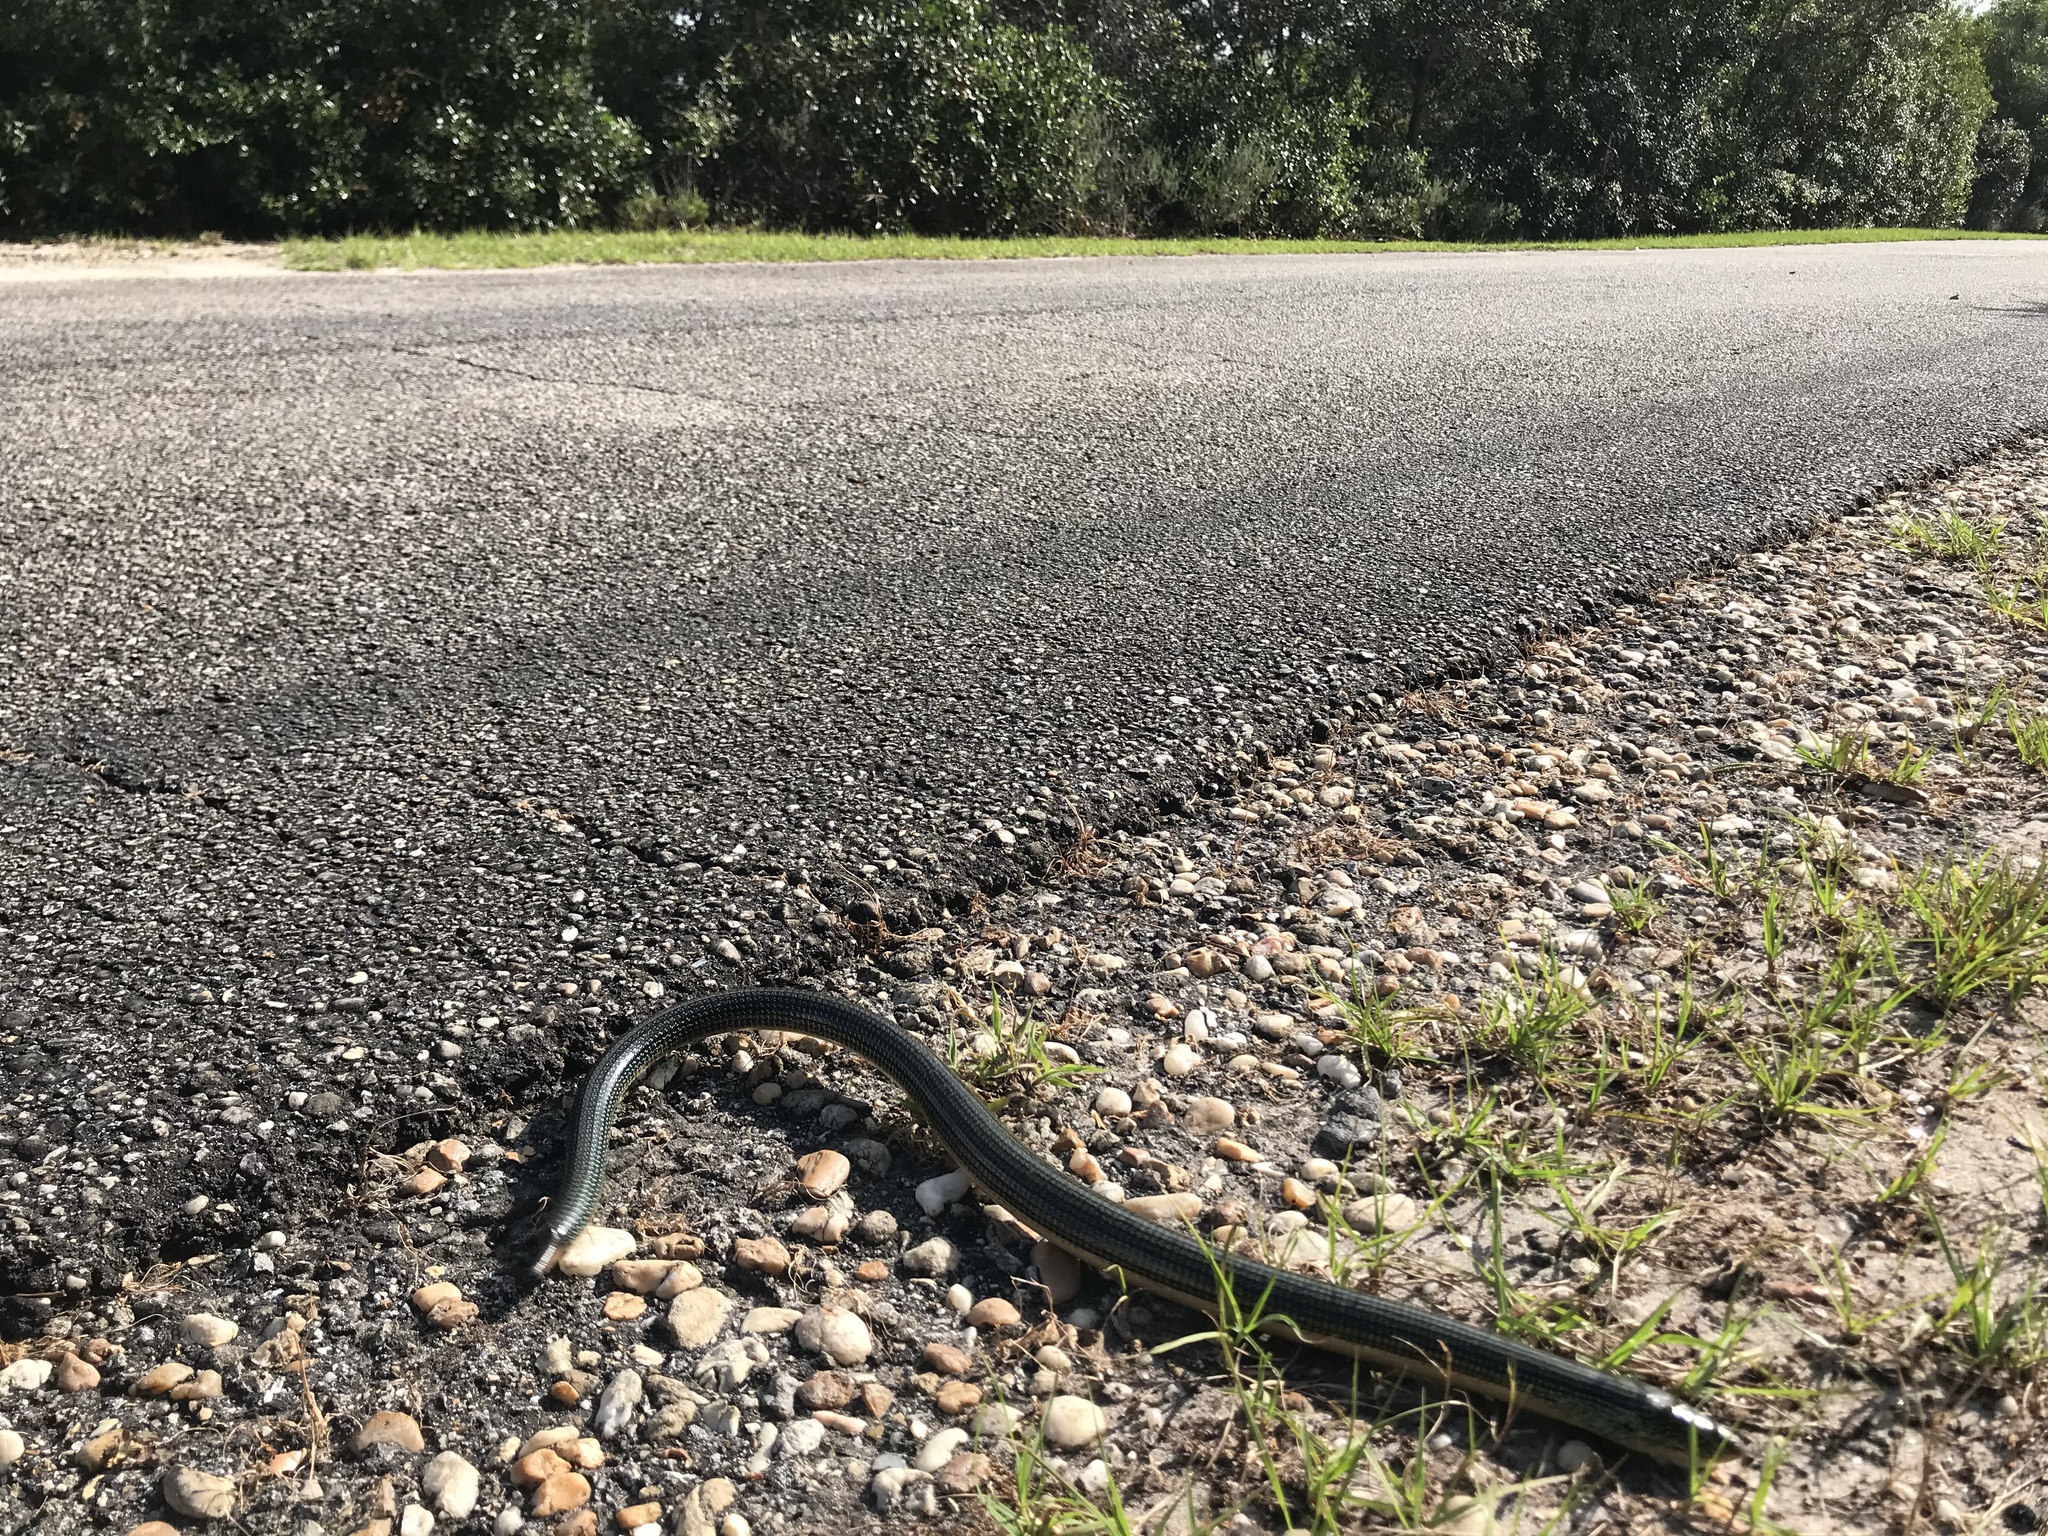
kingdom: Animalia
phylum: Chordata
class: Squamata
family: Anguidae
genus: Ophisaurus
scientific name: Ophisaurus ventralis
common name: Eastern glass lizard
